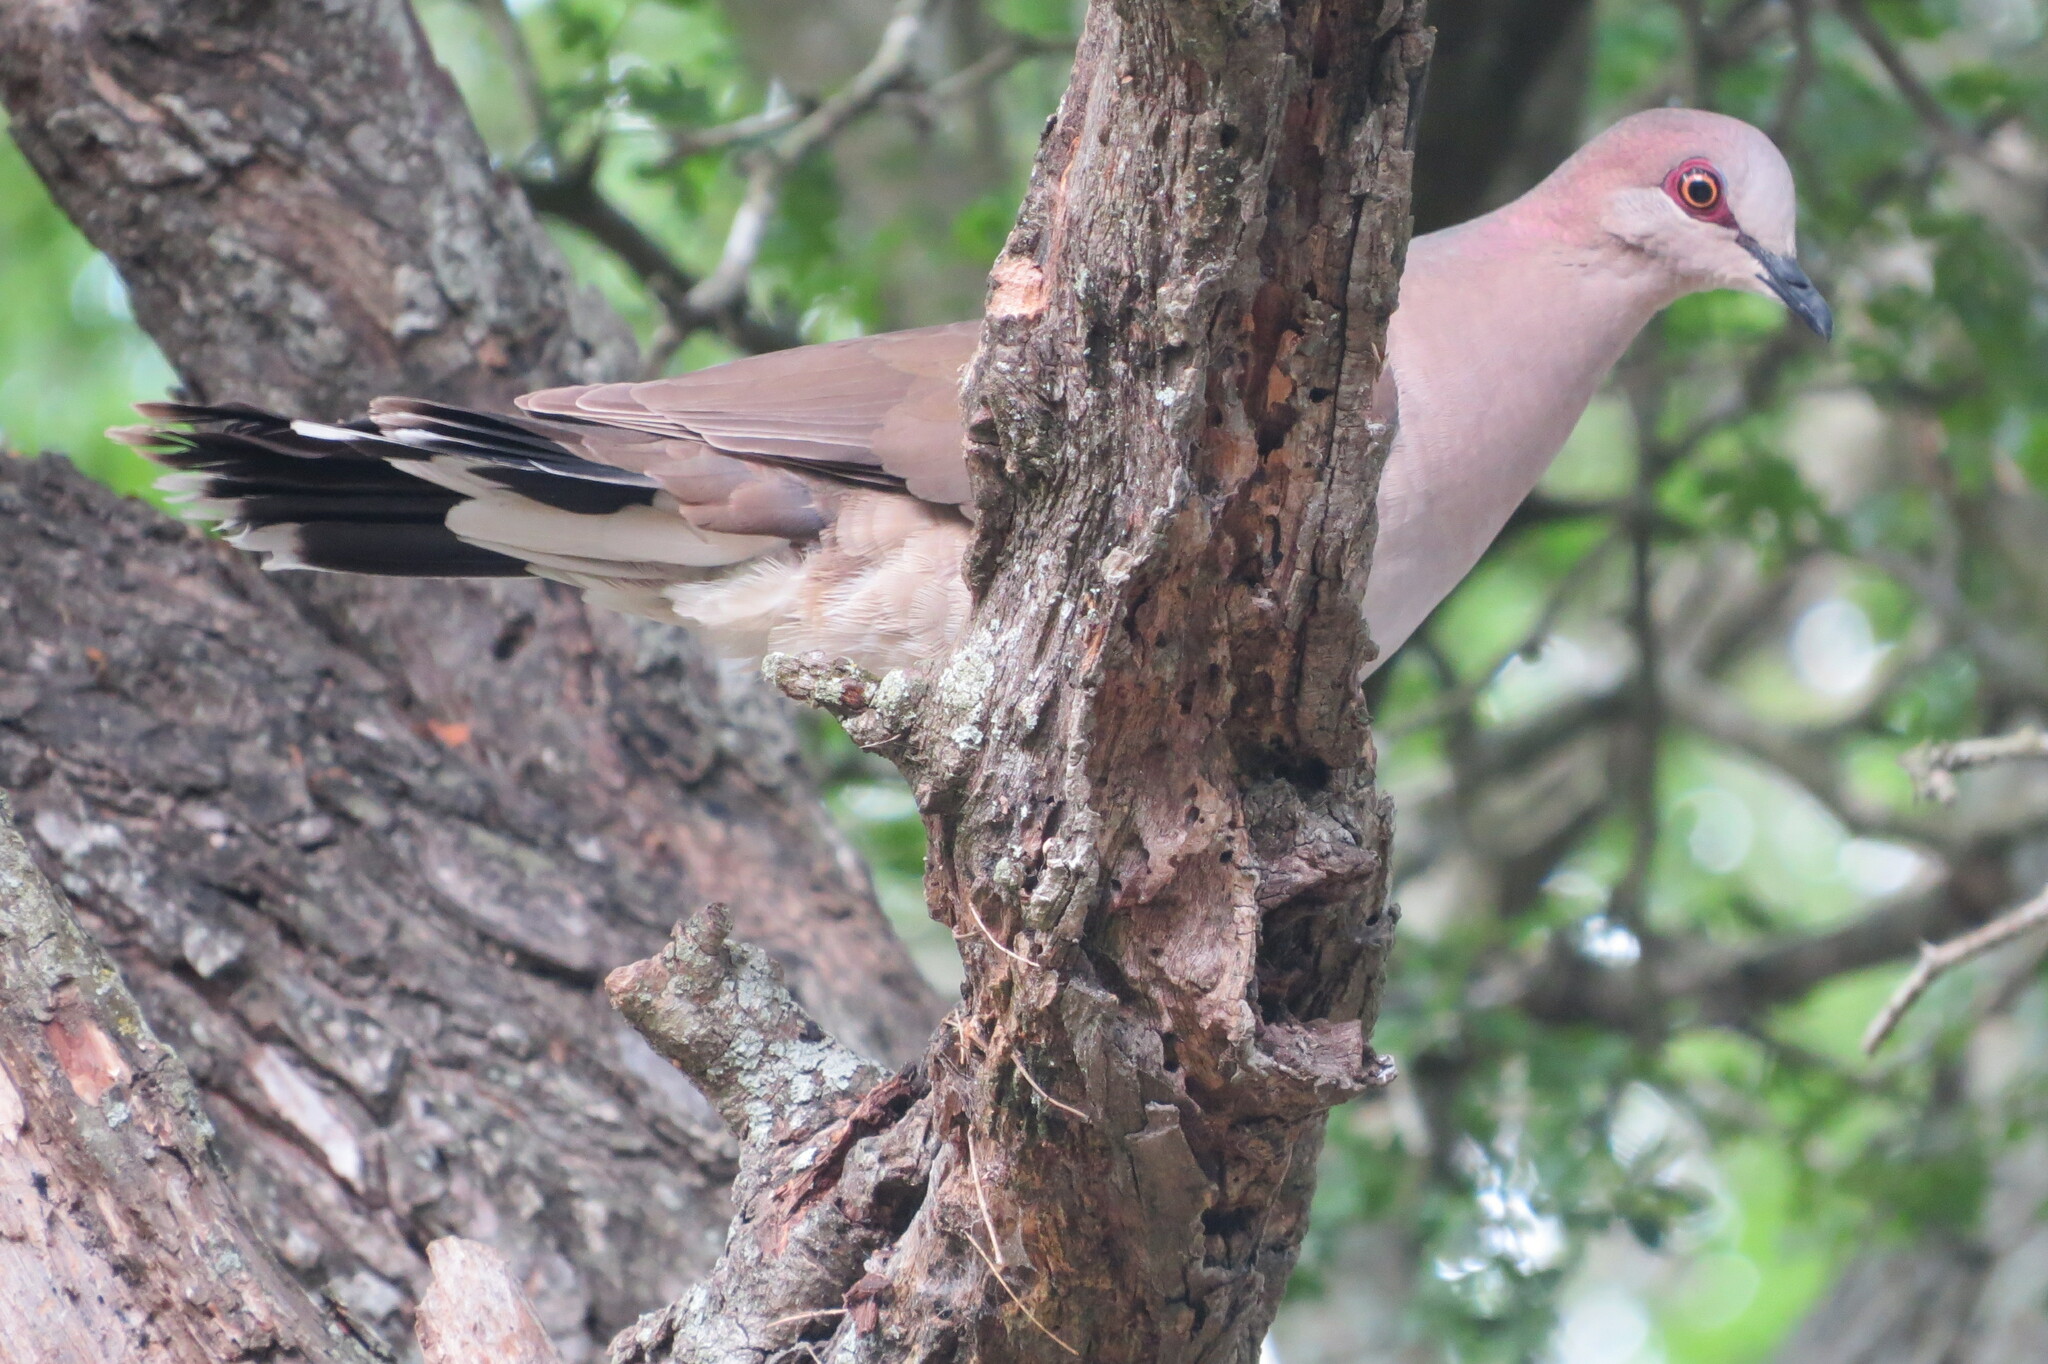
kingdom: Animalia
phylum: Chordata
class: Aves
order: Columbiformes
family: Columbidae
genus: Leptotila
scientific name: Leptotila verreauxi
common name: White-tipped dove
